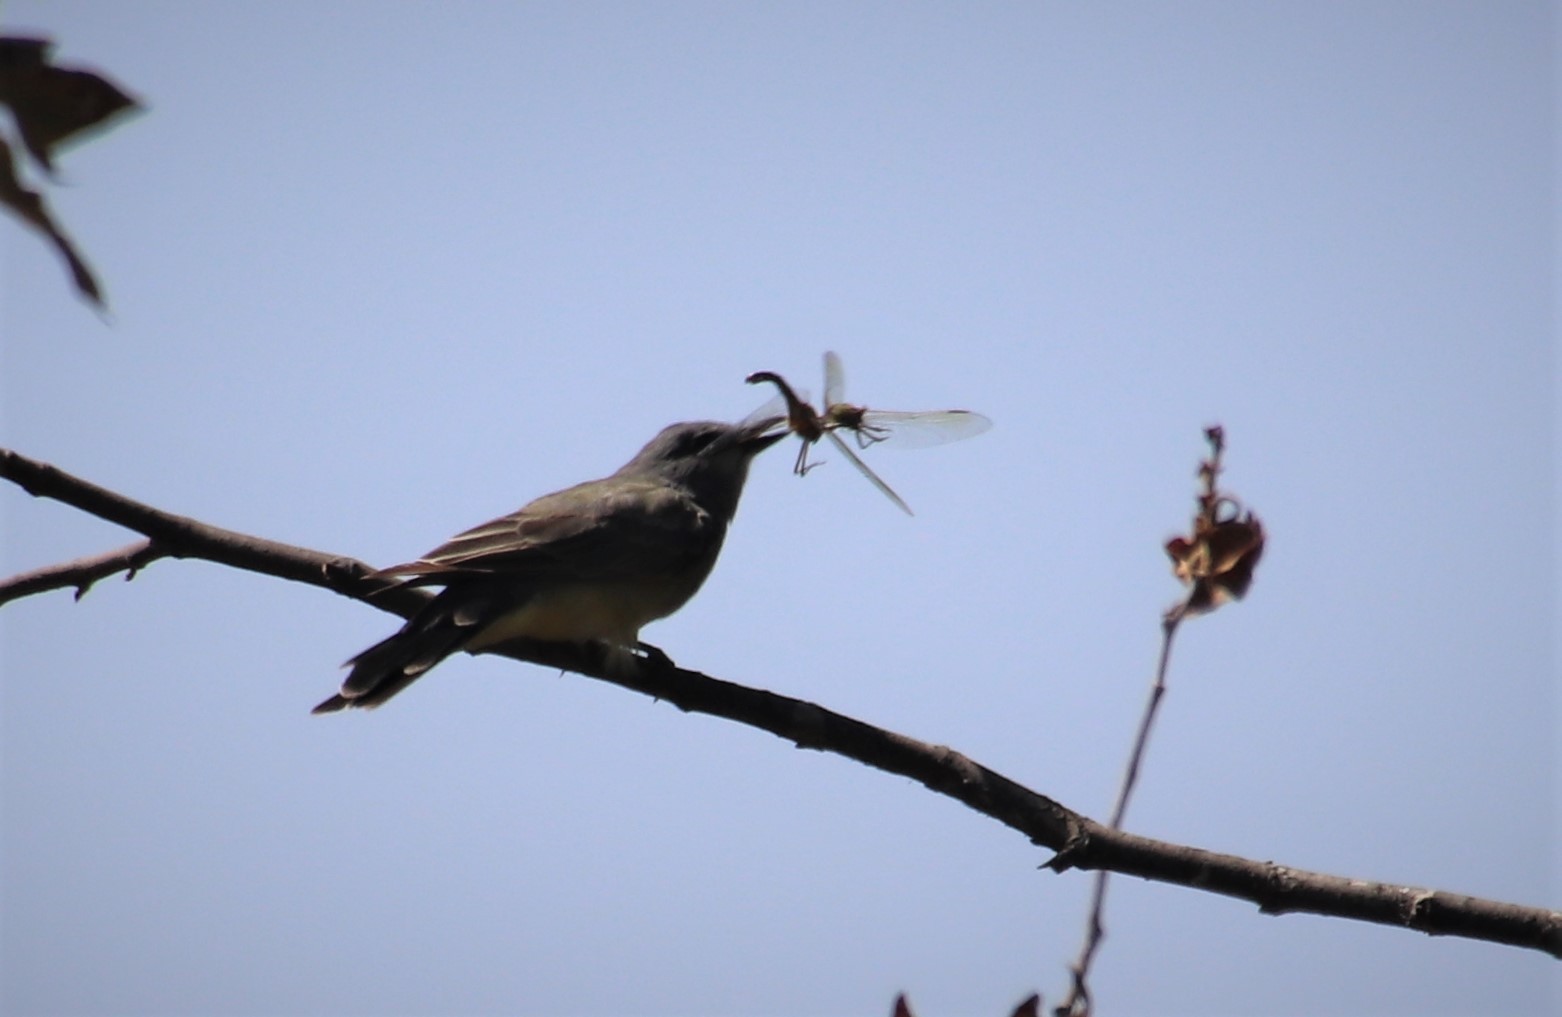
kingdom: Animalia
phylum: Chordata
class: Aves
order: Passeriformes
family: Tyrannidae
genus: Tyrannus
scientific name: Tyrannus vociferans
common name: Cassin's kingbird
